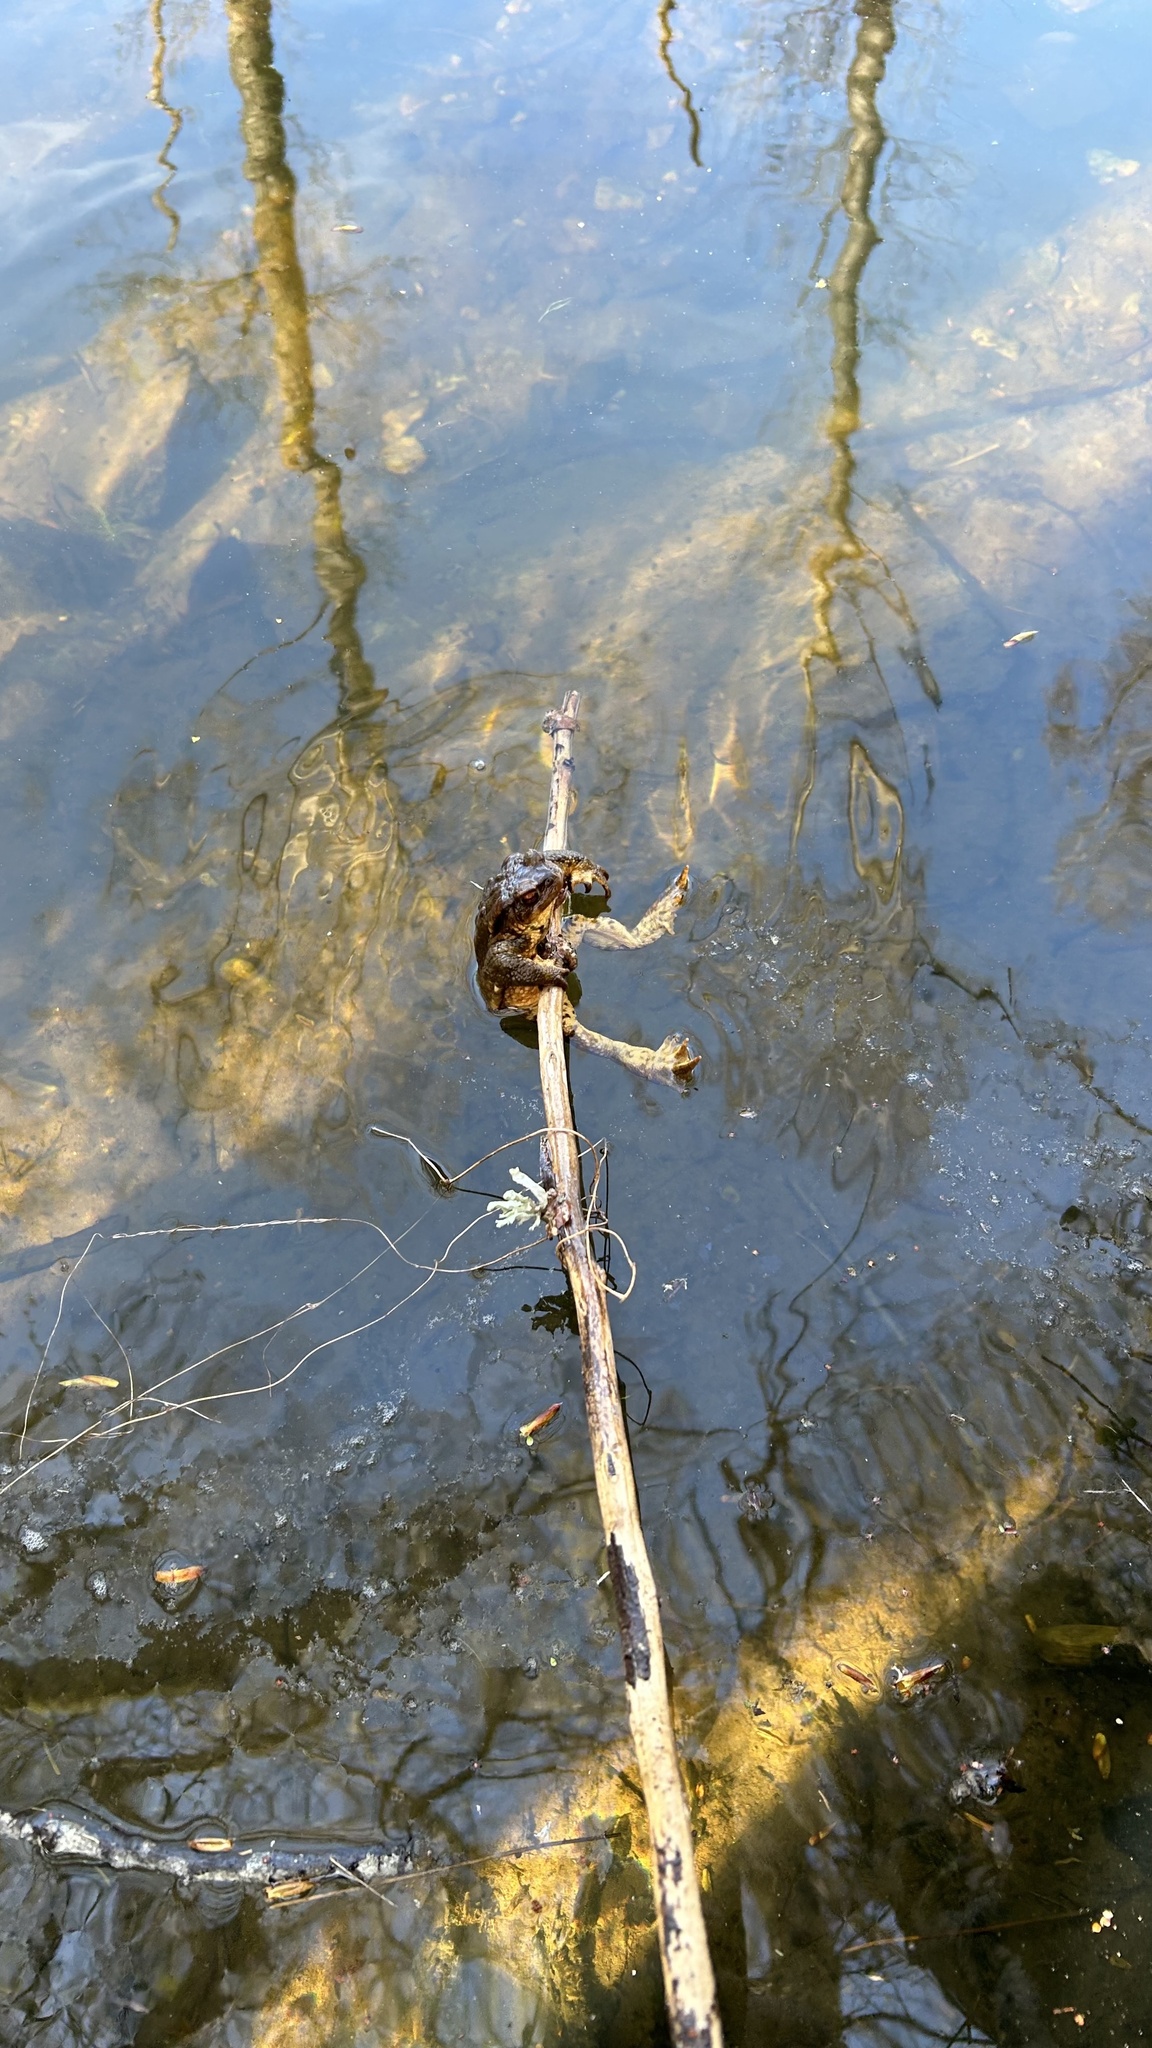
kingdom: Animalia
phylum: Chordata
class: Amphibia
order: Anura
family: Bufonidae
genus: Bufo
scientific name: Bufo spinosus
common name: Western common toad
